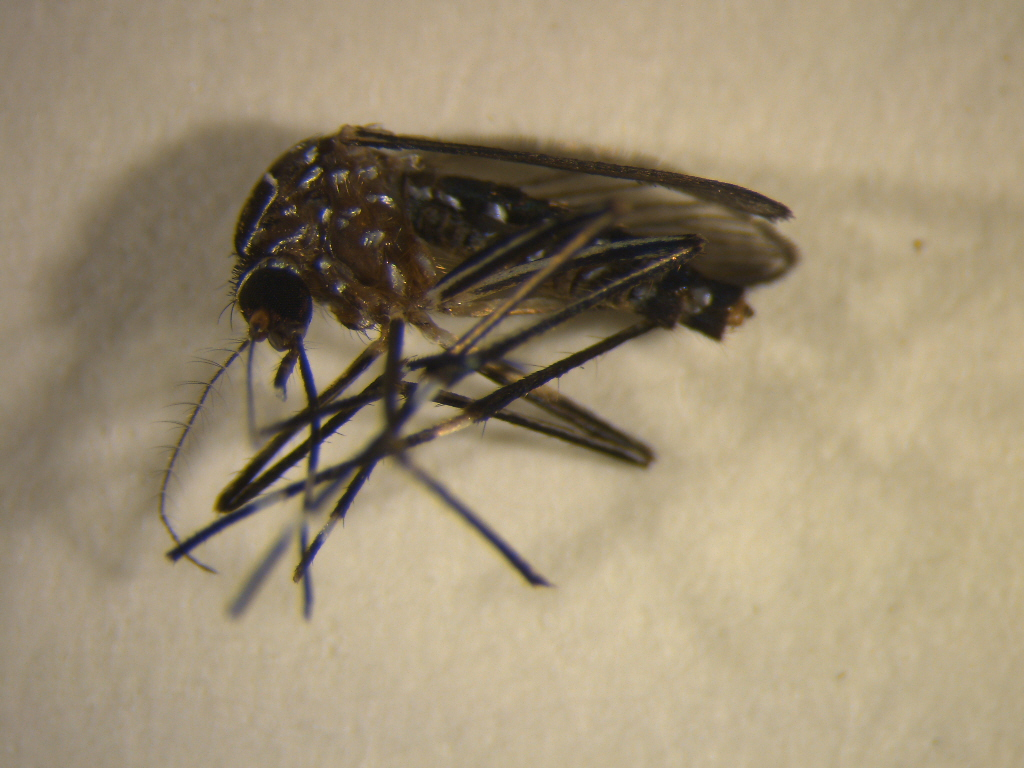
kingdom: Animalia
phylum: Arthropoda
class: Insecta
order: Diptera
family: Culicidae
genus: Aedes
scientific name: Aedes notoscriptus
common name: Australian backyard mosquito
